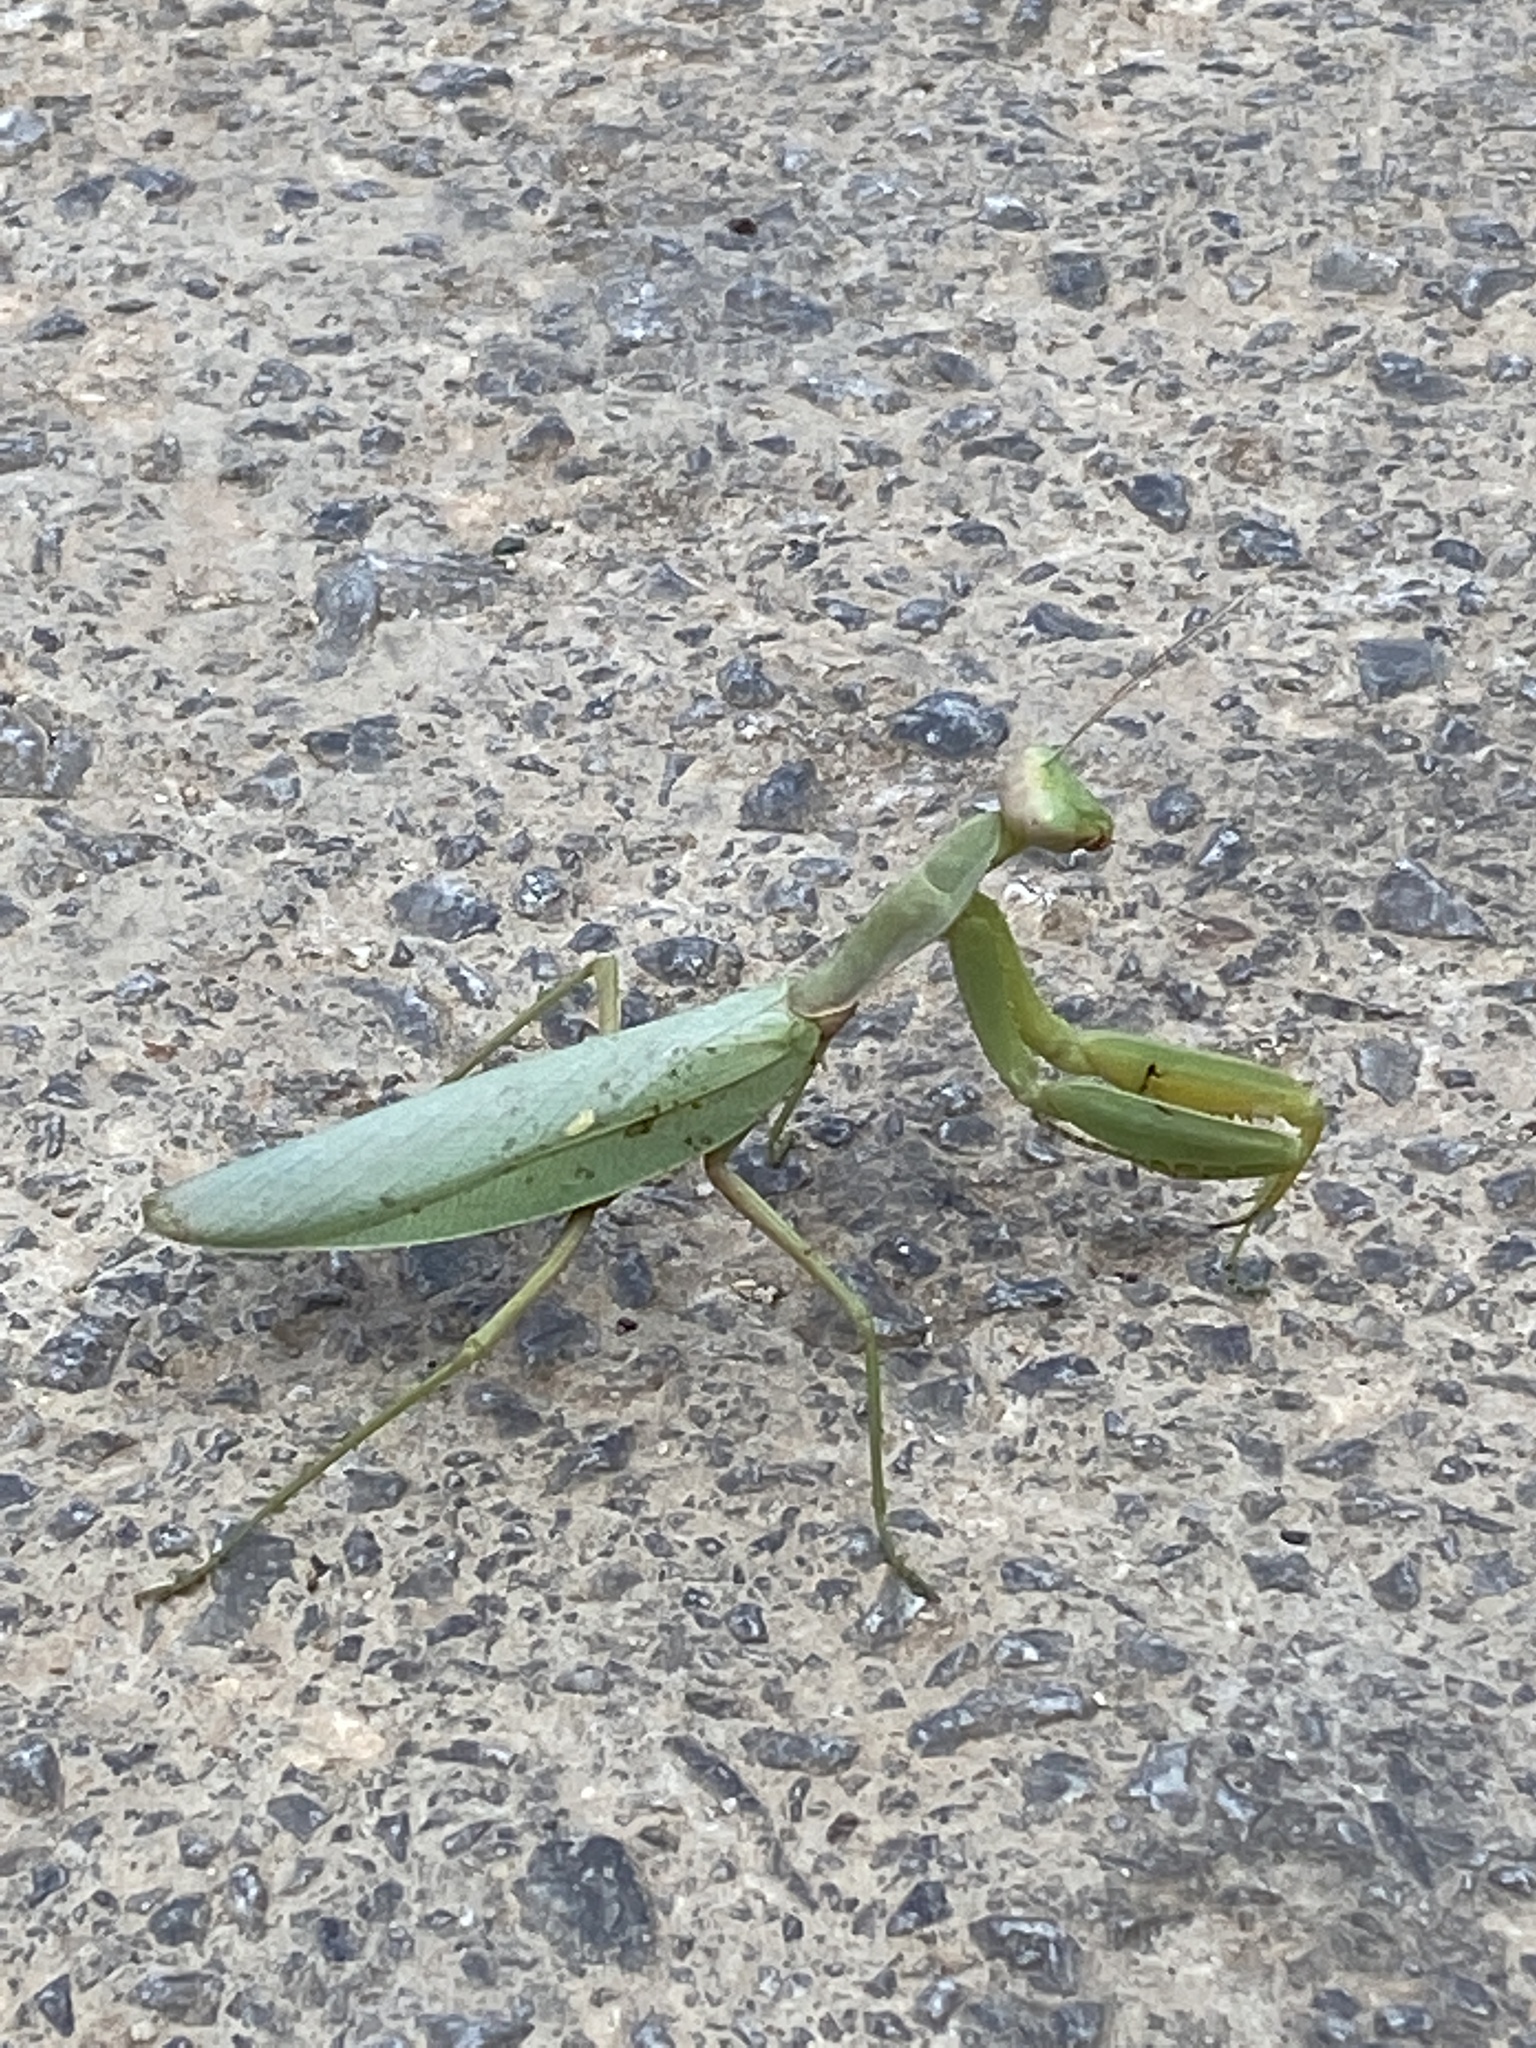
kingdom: Animalia
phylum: Arthropoda
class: Insecta
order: Mantodea
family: Mantidae
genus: Hierodula
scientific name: Hierodula transcaucasica
